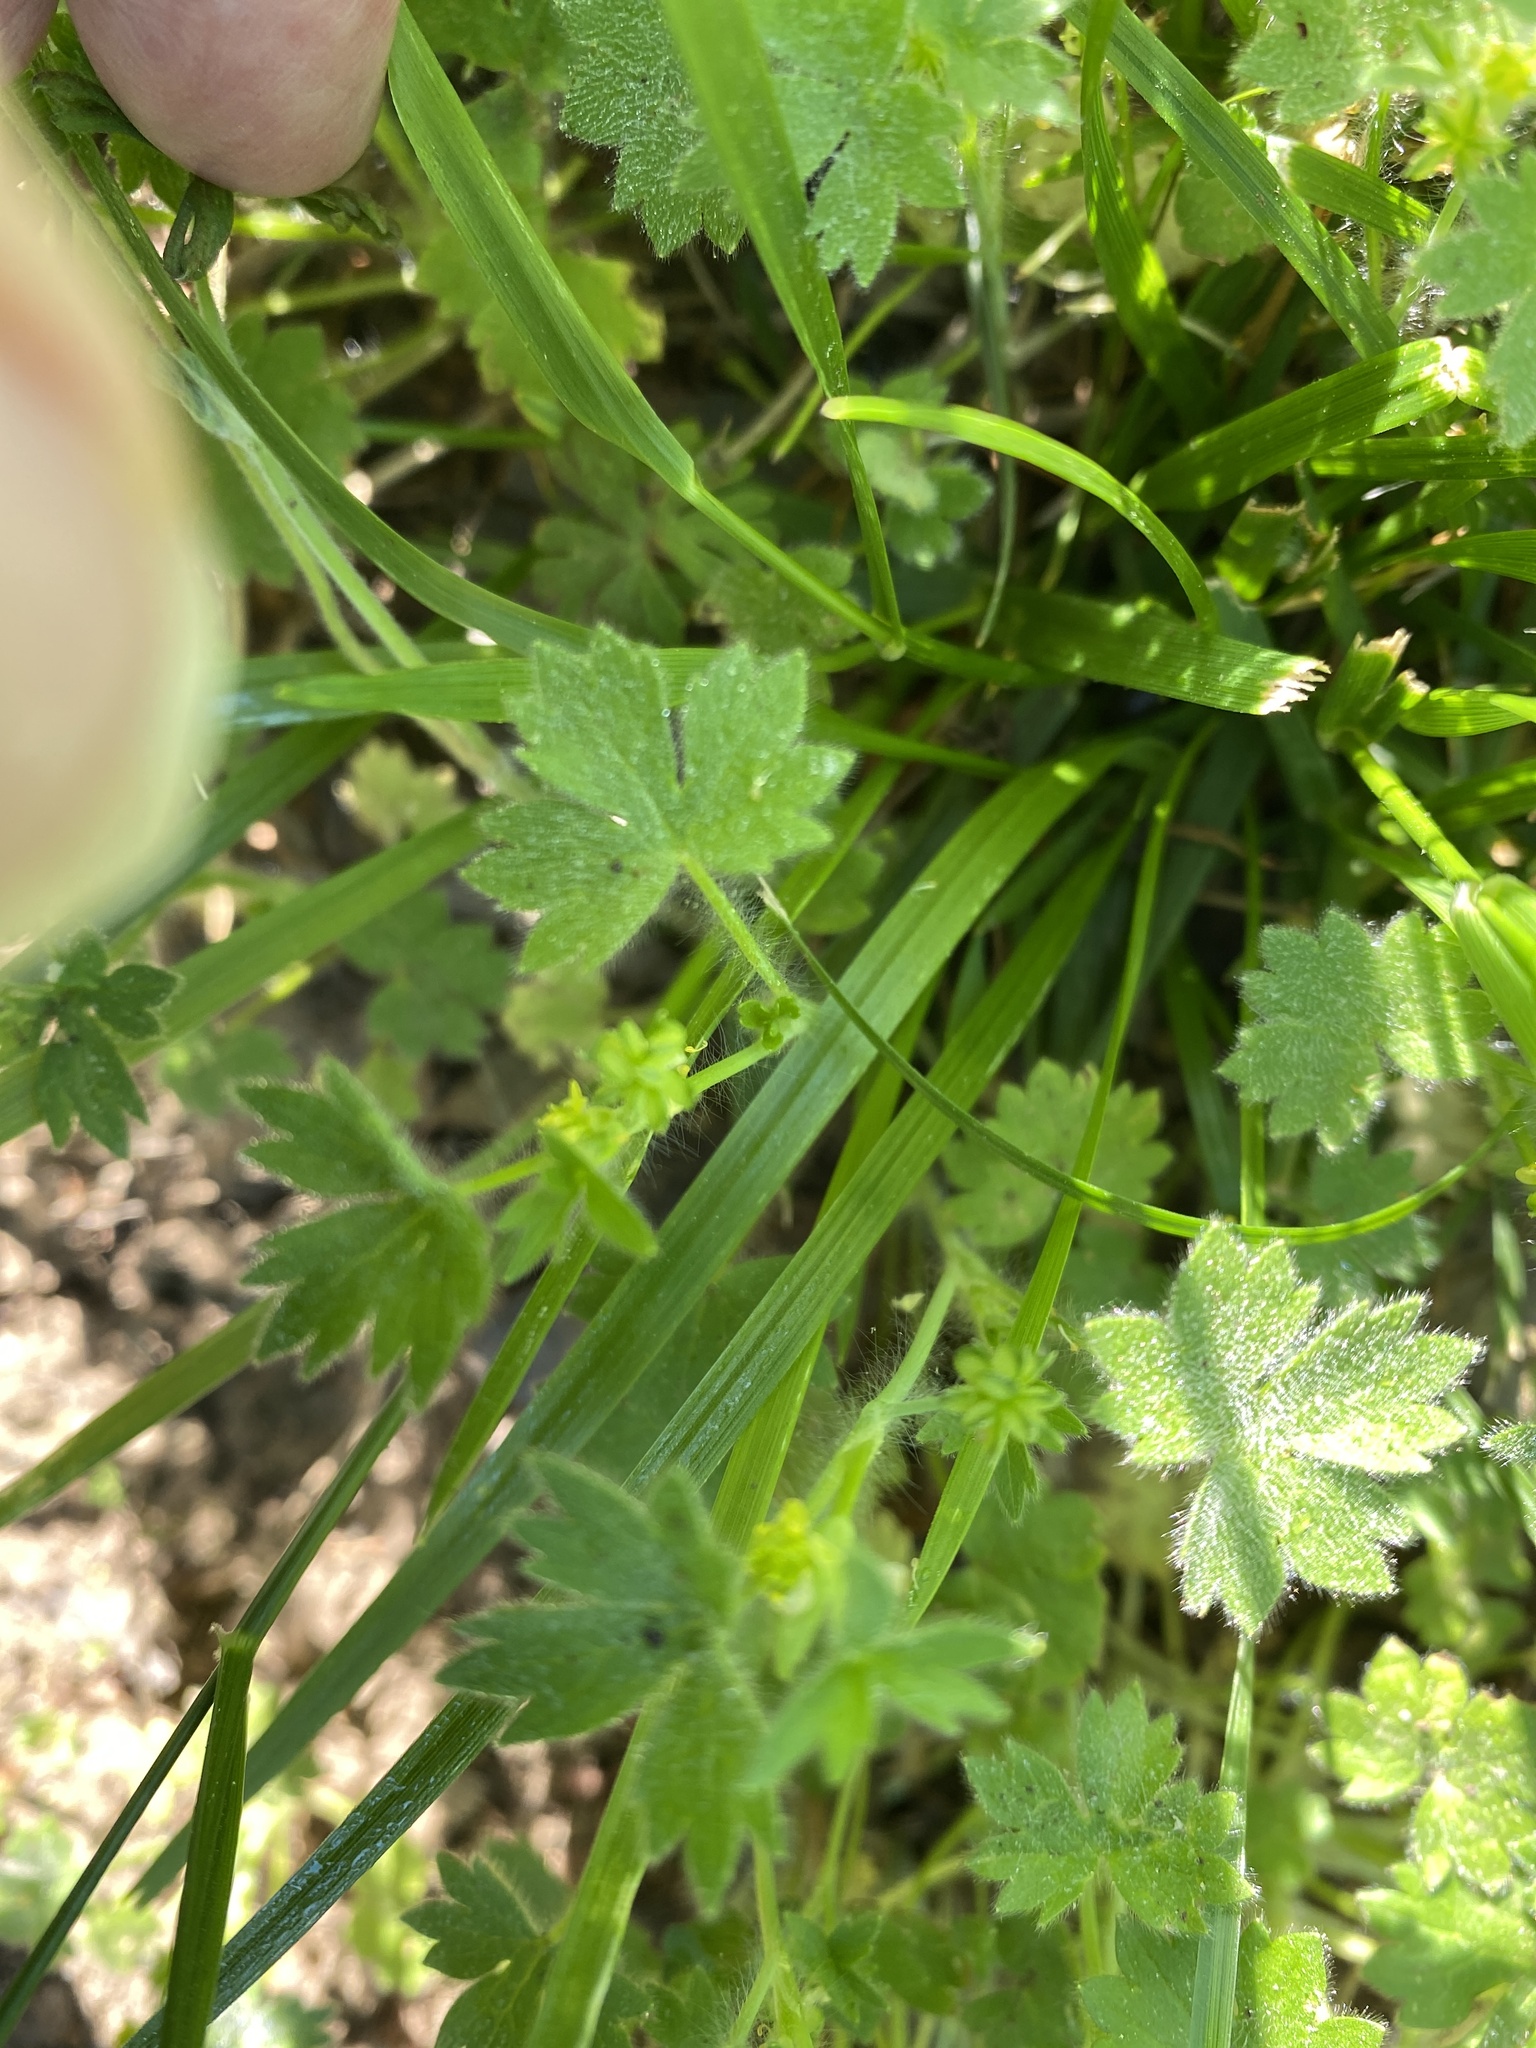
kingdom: Plantae
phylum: Tracheophyta
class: Magnoliopsida
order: Ranunculales
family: Ranunculaceae
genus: Ranunculus
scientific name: Ranunculus parviflorus
